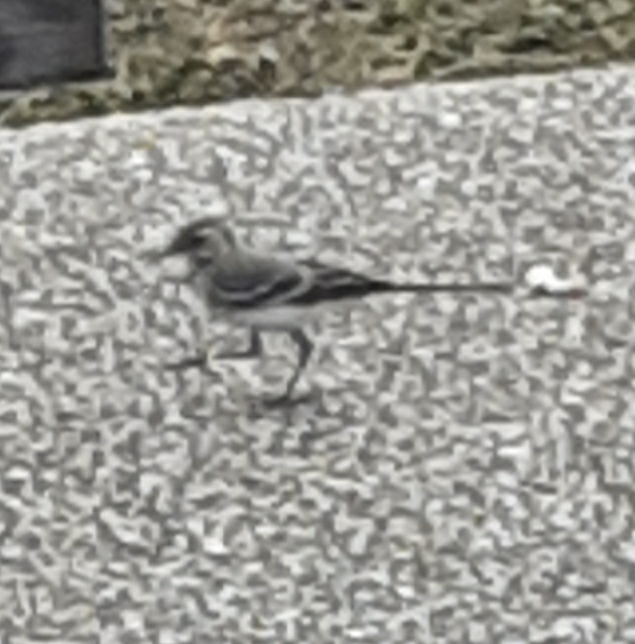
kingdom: Animalia
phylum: Chordata
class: Aves
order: Passeriformes
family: Motacillidae
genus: Motacilla
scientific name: Motacilla alba
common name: White wagtail
